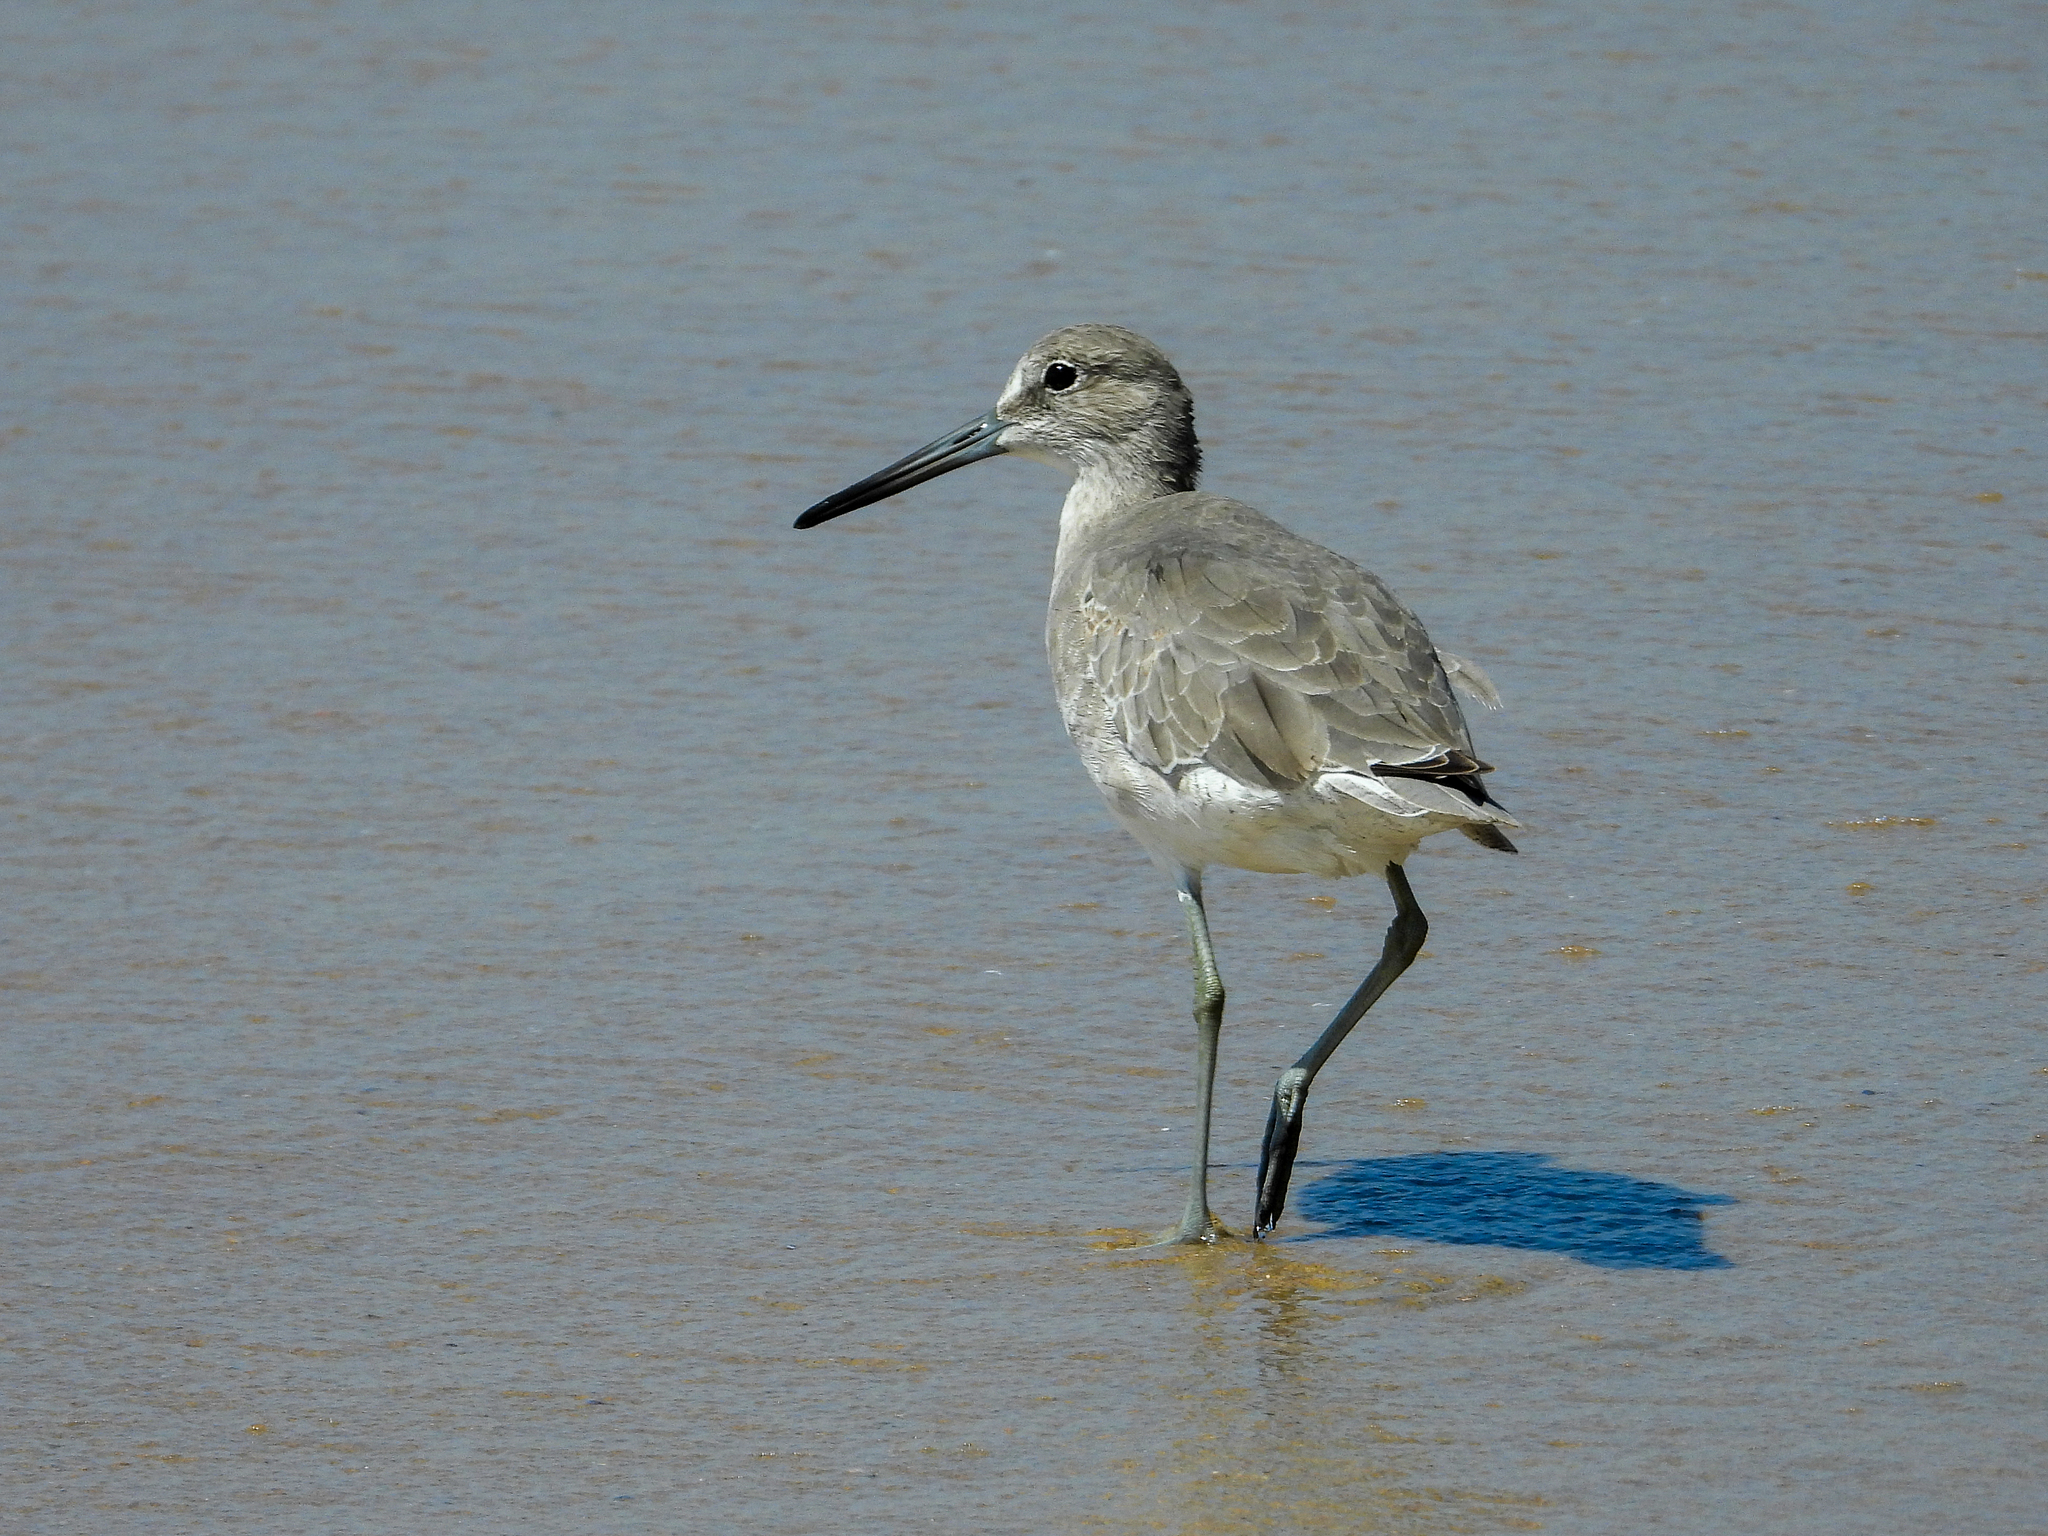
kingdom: Animalia
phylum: Chordata
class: Aves
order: Charadriiformes
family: Scolopacidae
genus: Tringa
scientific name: Tringa semipalmata
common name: Willet
